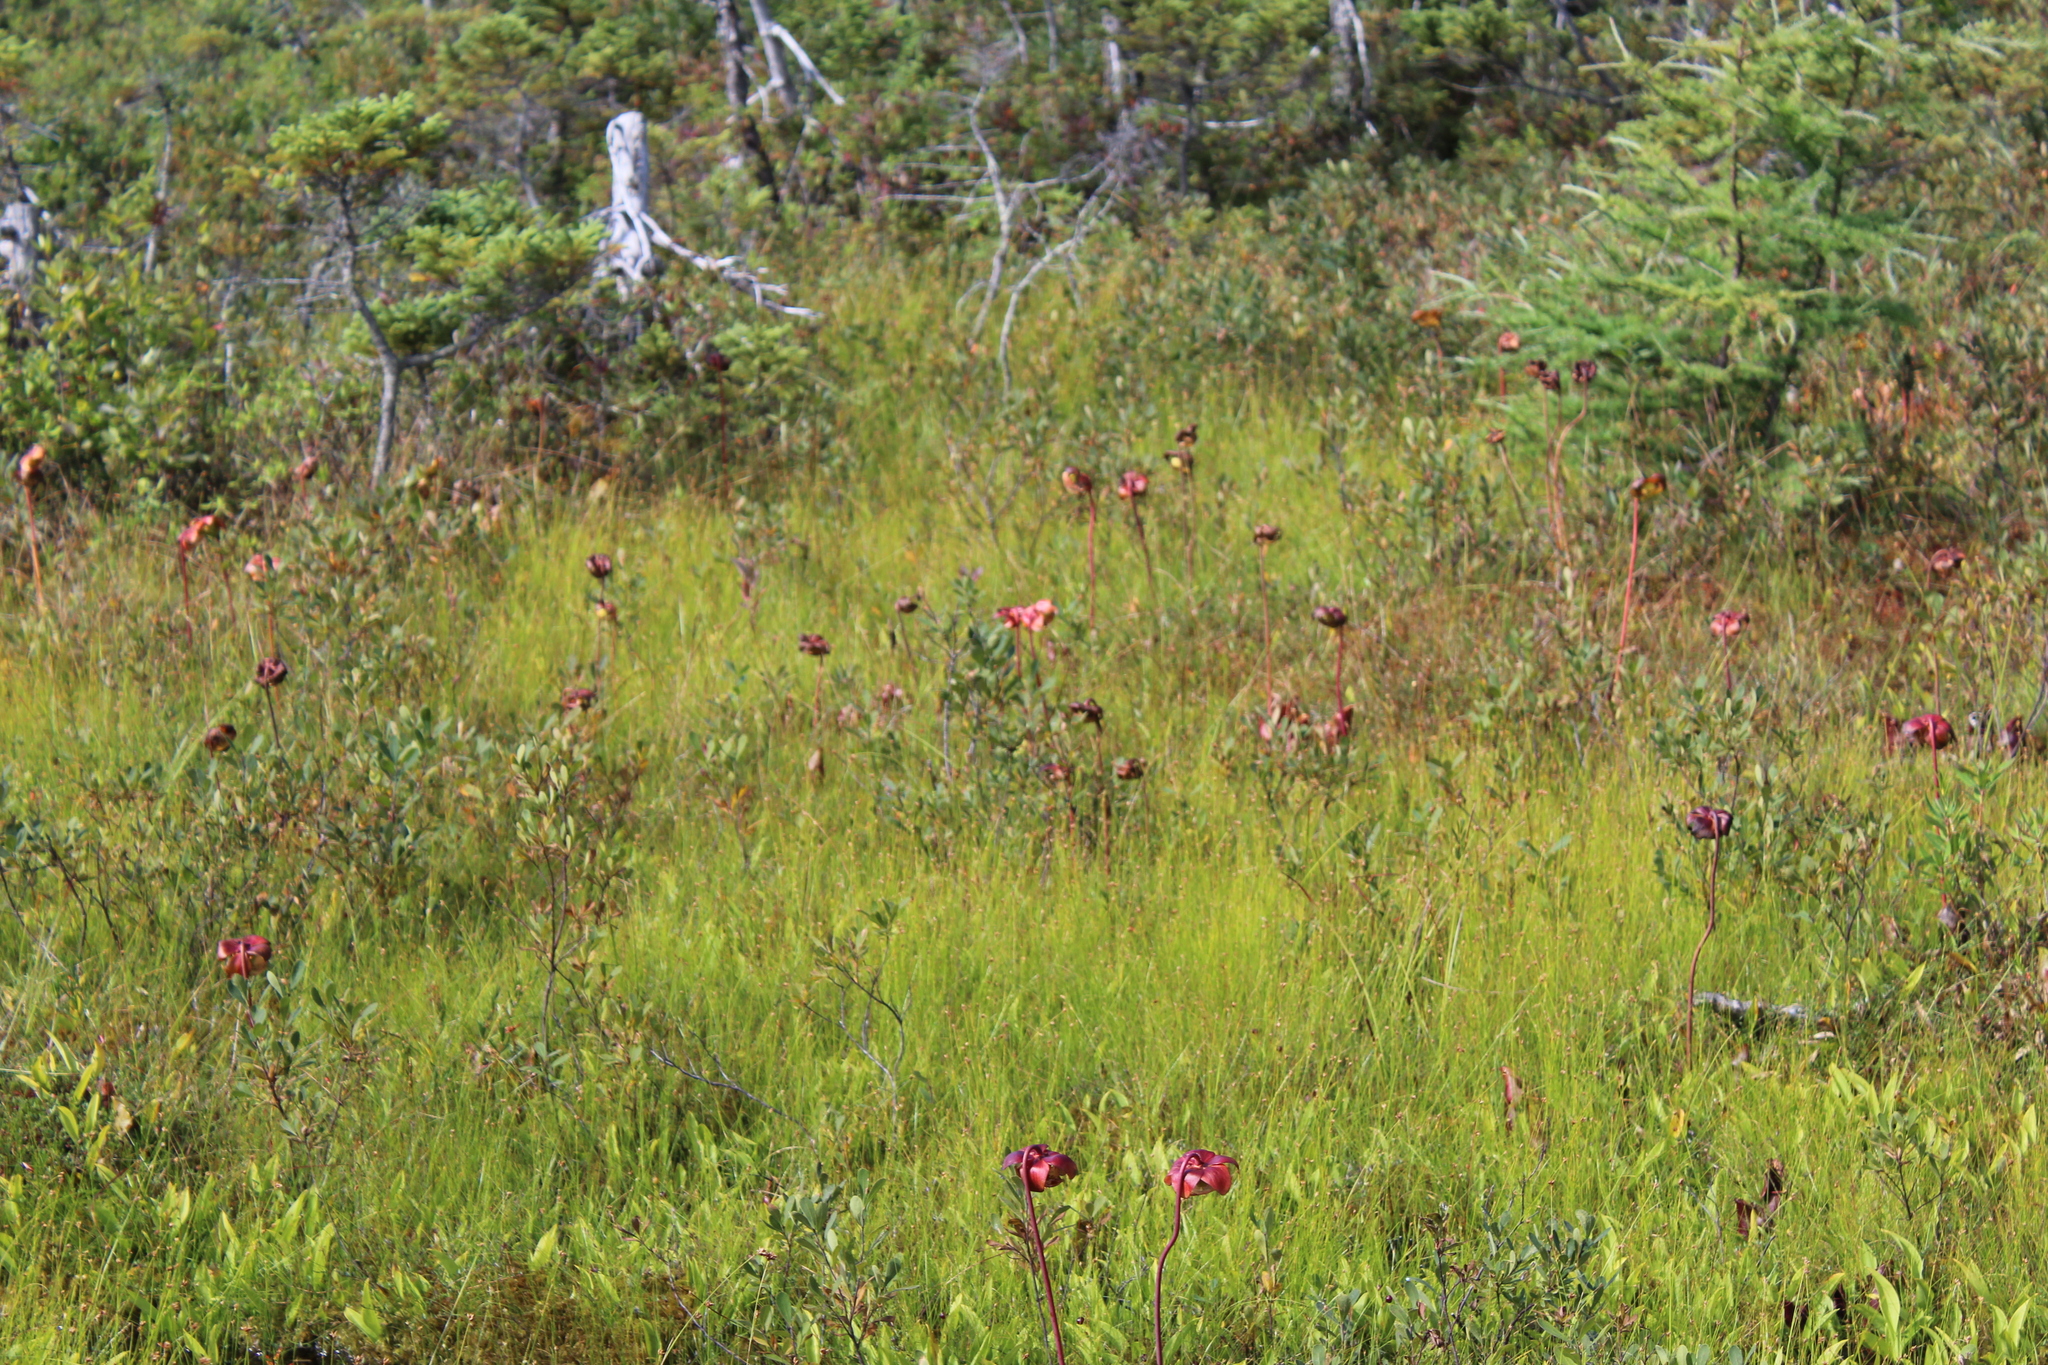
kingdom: Plantae
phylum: Tracheophyta
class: Magnoliopsida
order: Ericales
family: Sarraceniaceae
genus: Sarracenia
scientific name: Sarracenia purpurea
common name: Pitcherplant
